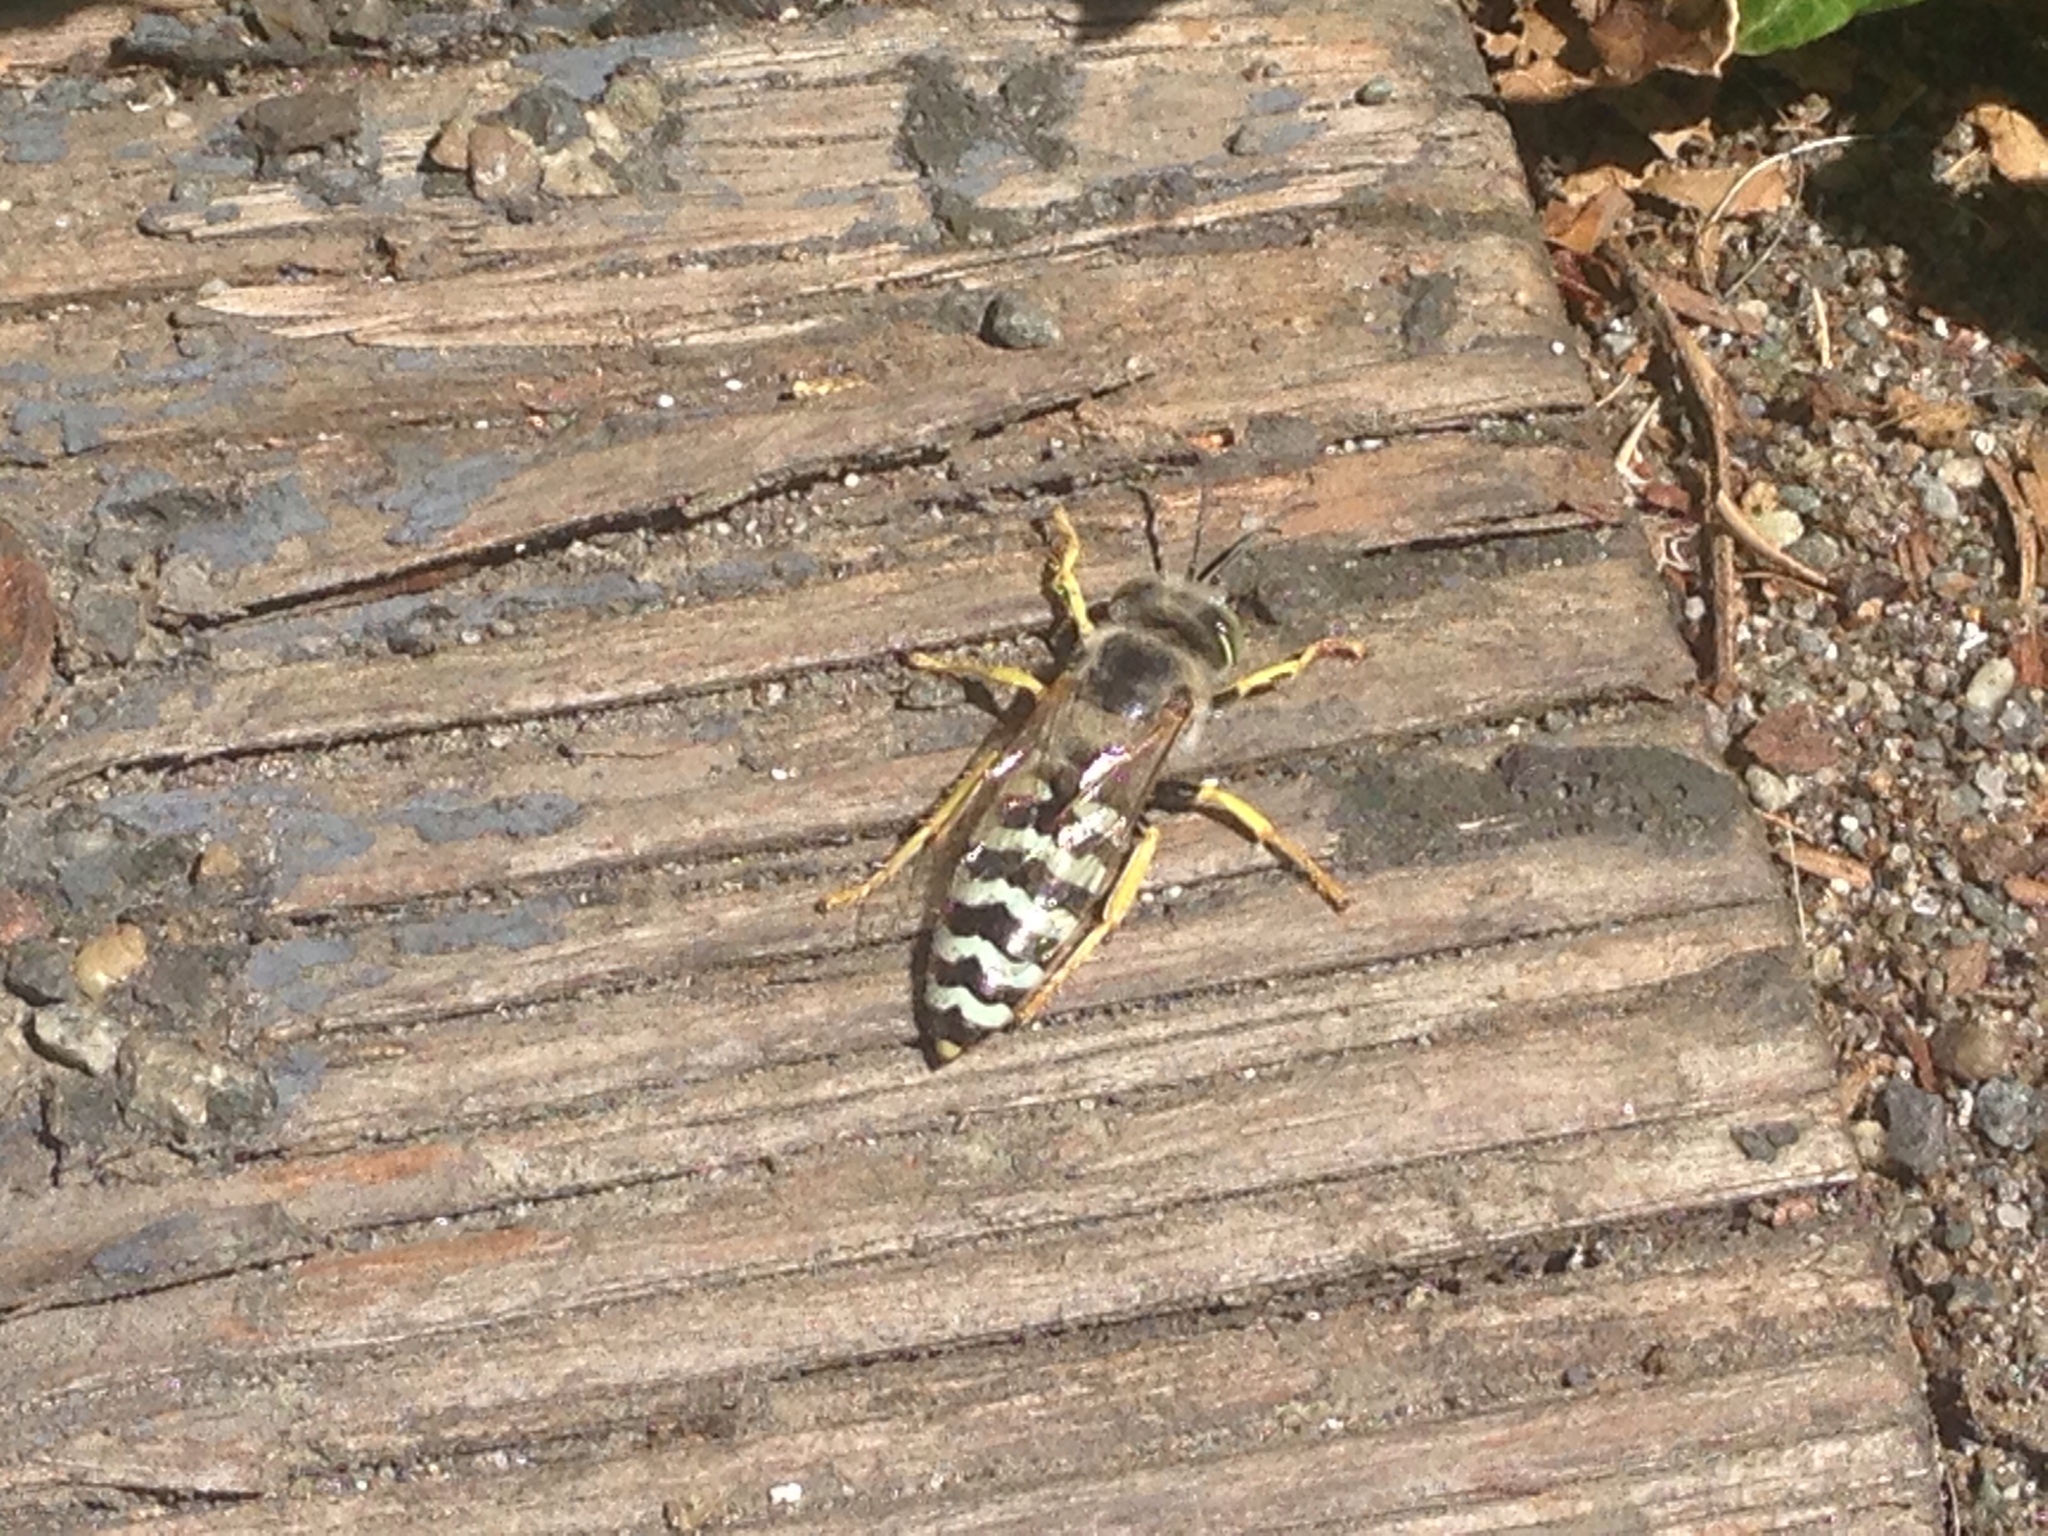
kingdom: Animalia
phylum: Arthropoda
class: Insecta
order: Hymenoptera
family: Crabronidae
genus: Bembix
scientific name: Bembix americana
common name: American sand wasp
